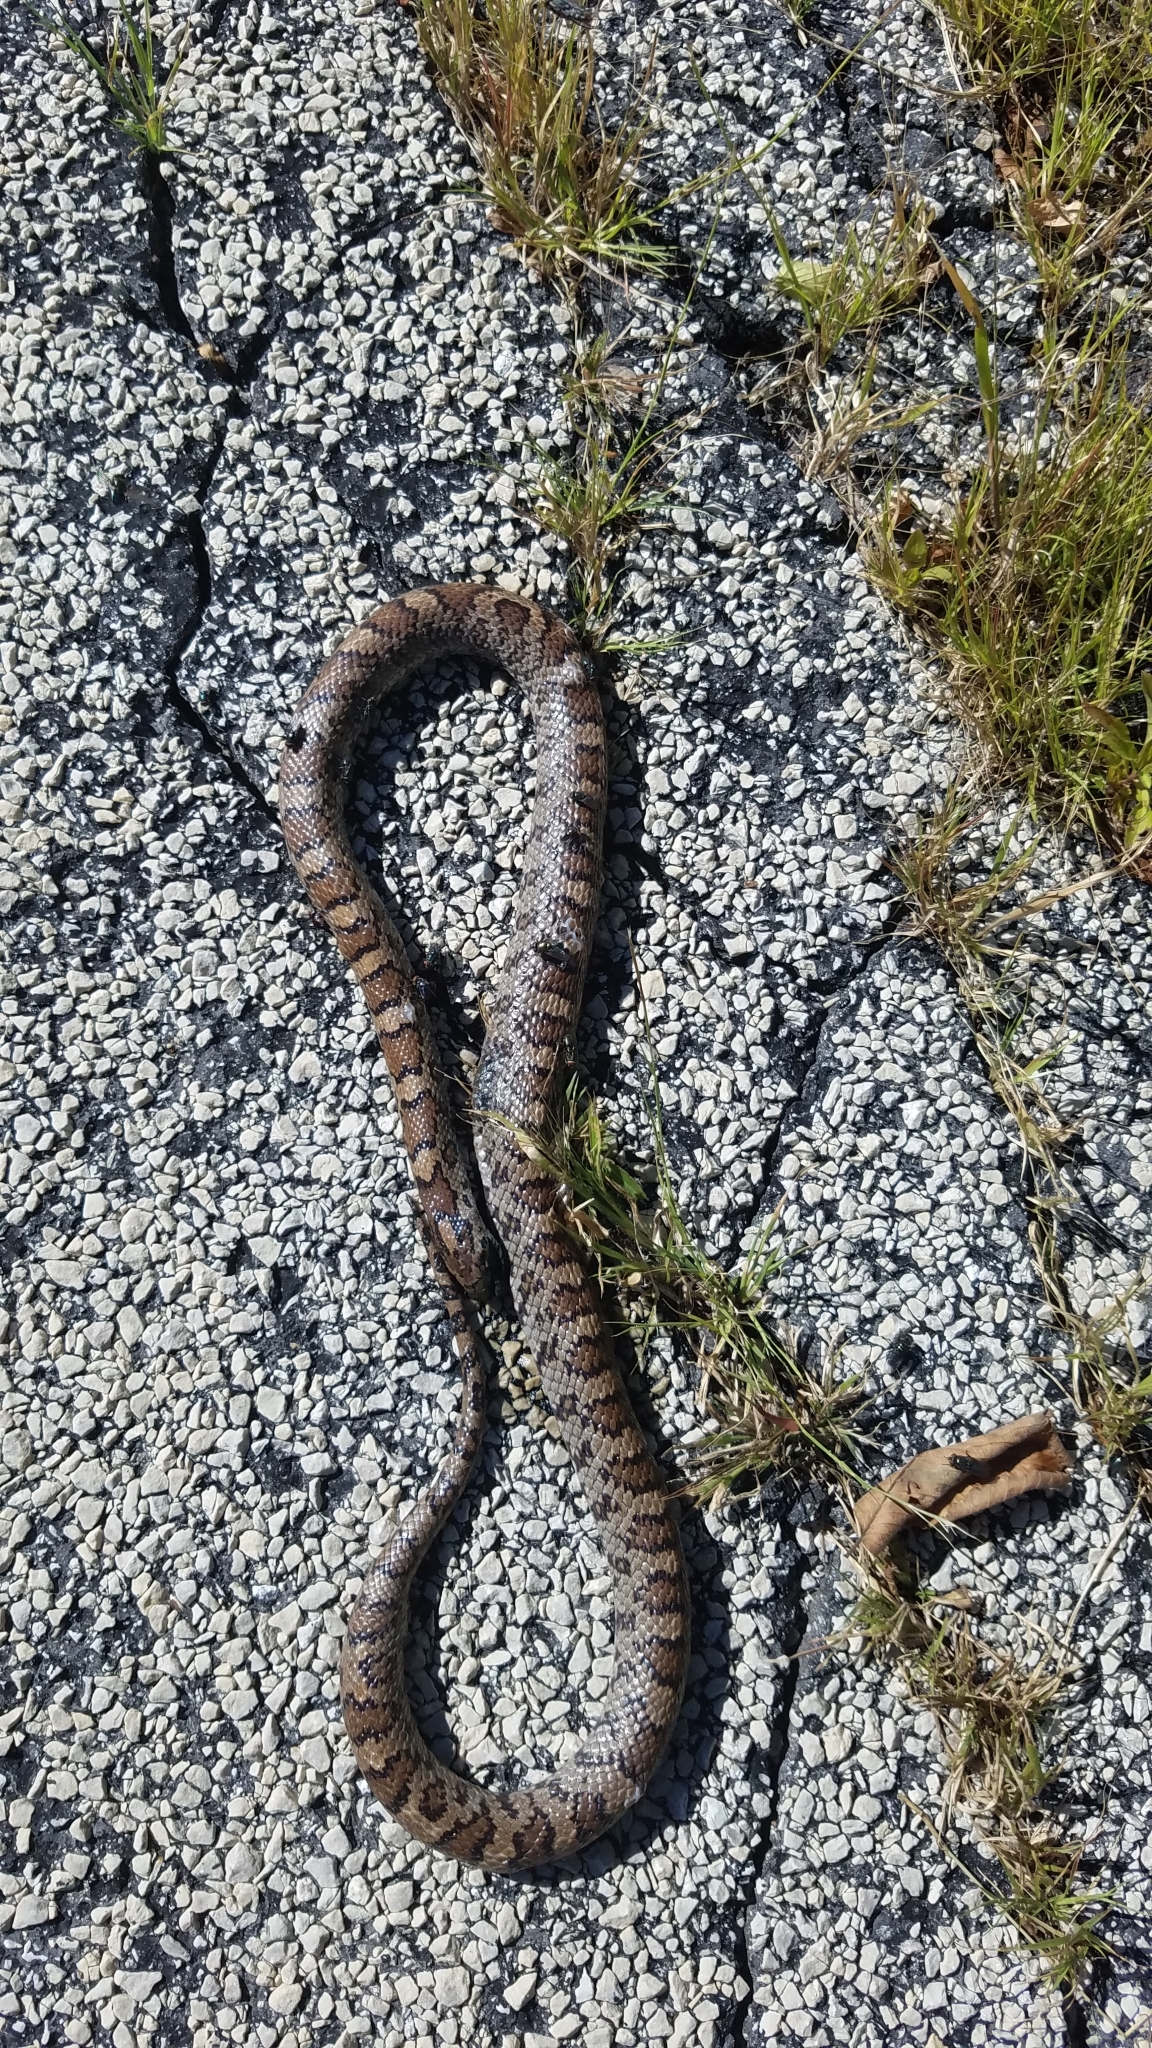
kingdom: Animalia
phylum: Chordata
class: Squamata
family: Colubridae
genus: Lampropeltis
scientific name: Lampropeltis triangulum
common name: Eastern milksnake
